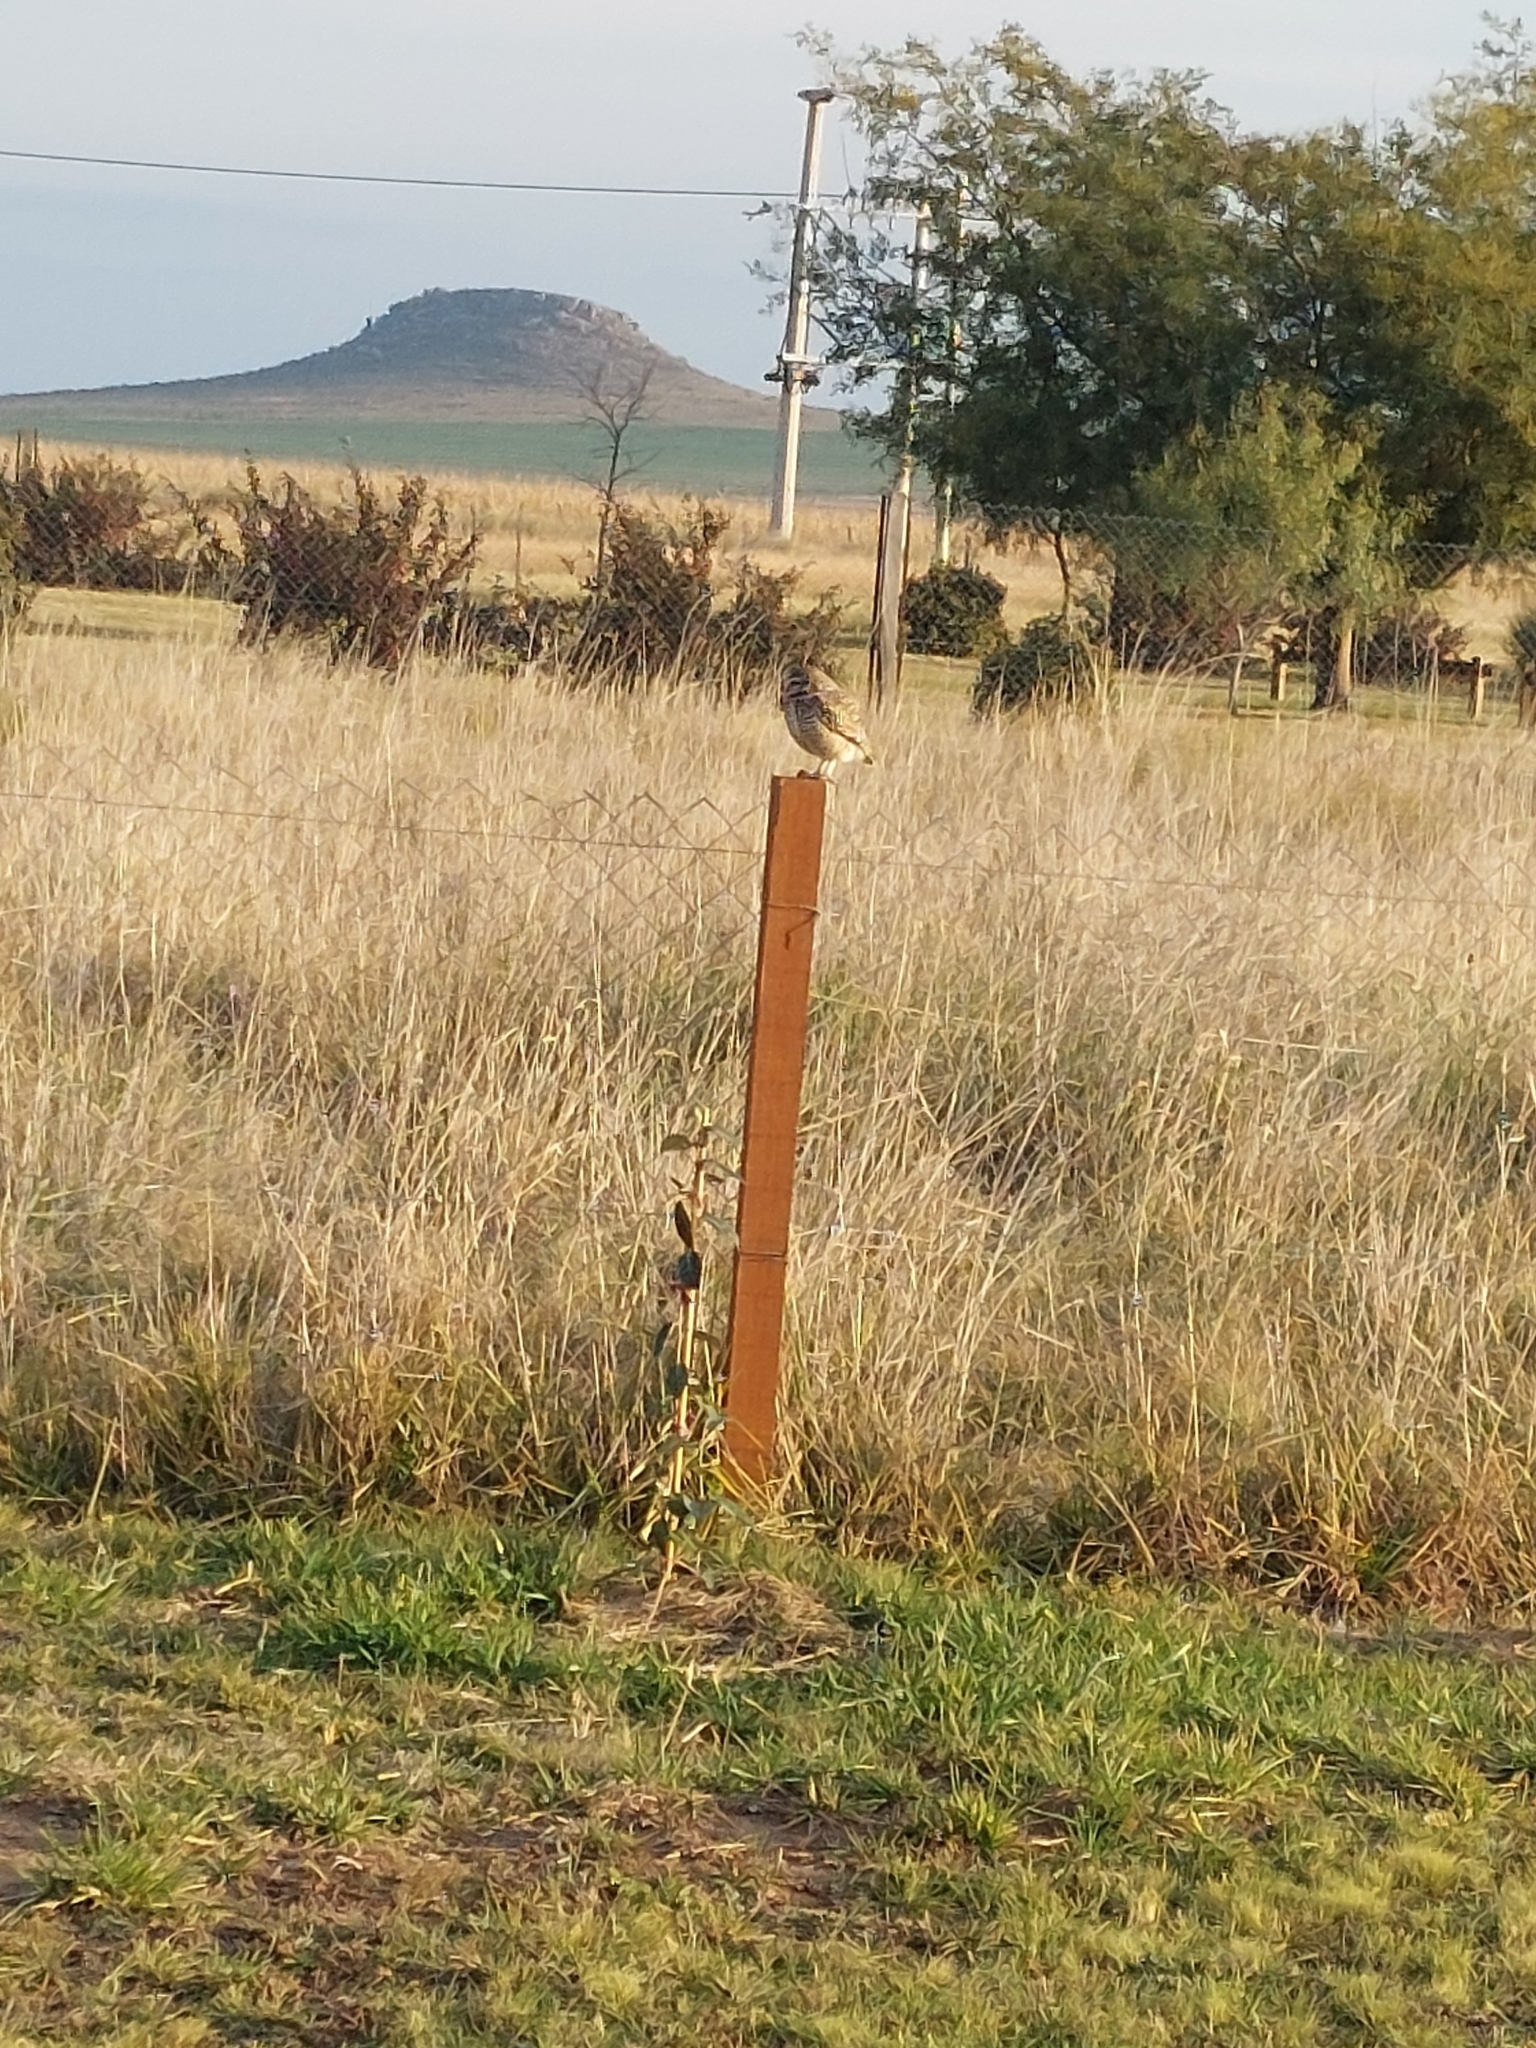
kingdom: Animalia
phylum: Chordata
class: Aves
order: Strigiformes
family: Strigidae
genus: Athene
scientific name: Athene cunicularia
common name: Burrowing owl
